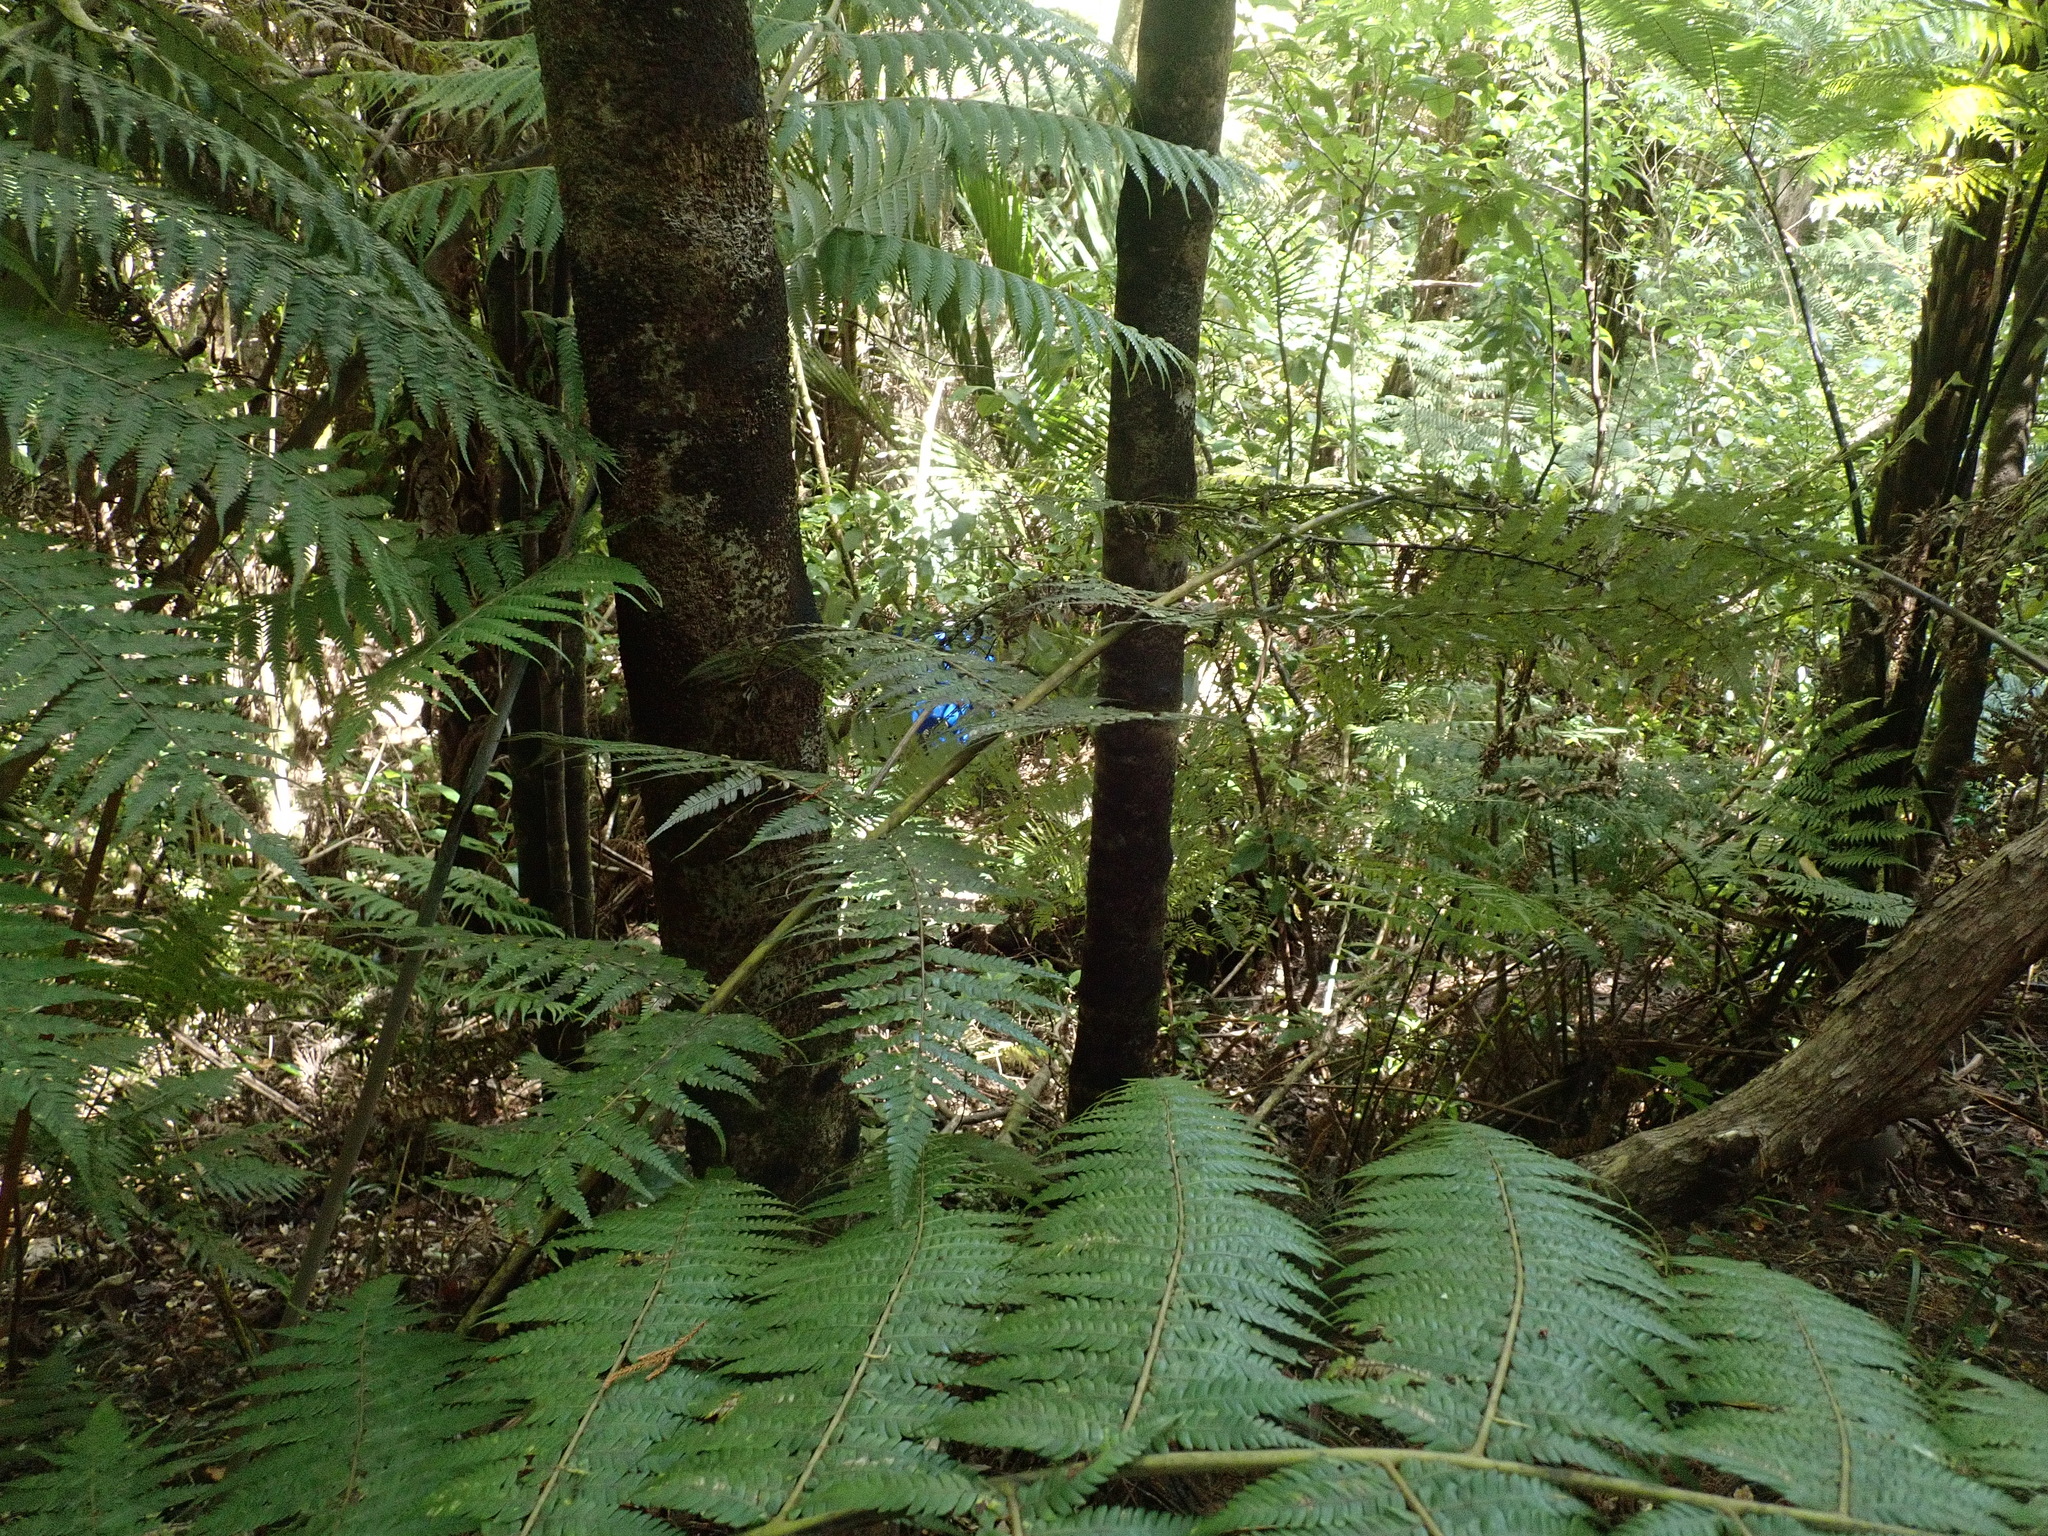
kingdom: Plantae
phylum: Tracheophyta
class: Polypodiopsida
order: Cyatheales
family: Cyatheaceae
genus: Alsophila
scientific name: Alsophila dealbata
